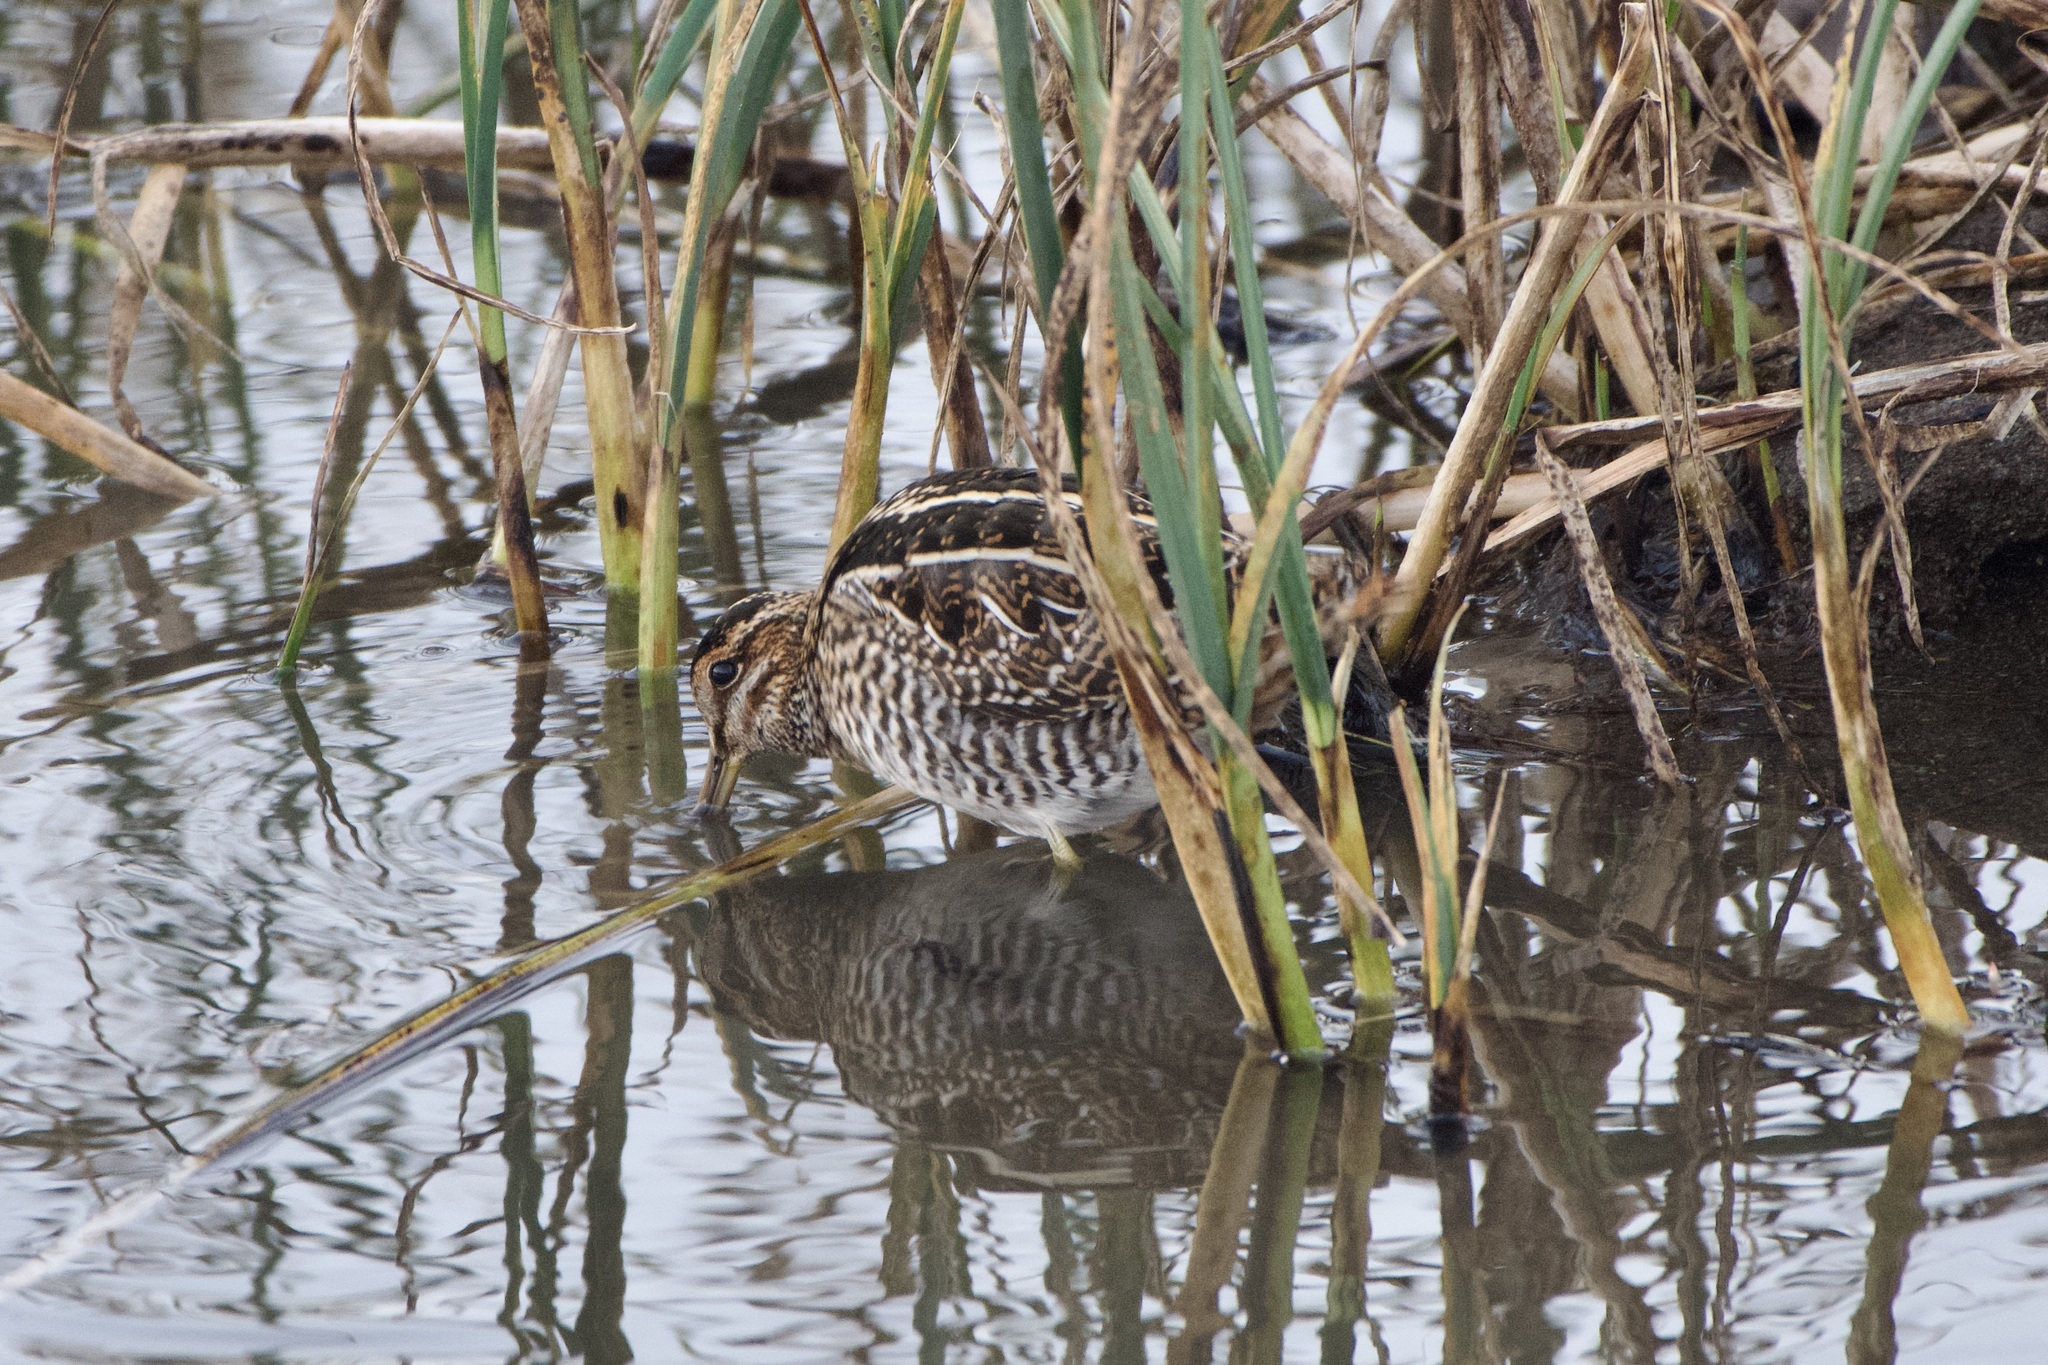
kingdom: Animalia
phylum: Chordata
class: Aves
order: Charadriiformes
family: Scolopacidae
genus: Gallinago
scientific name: Gallinago delicata
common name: Wilson's snipe
